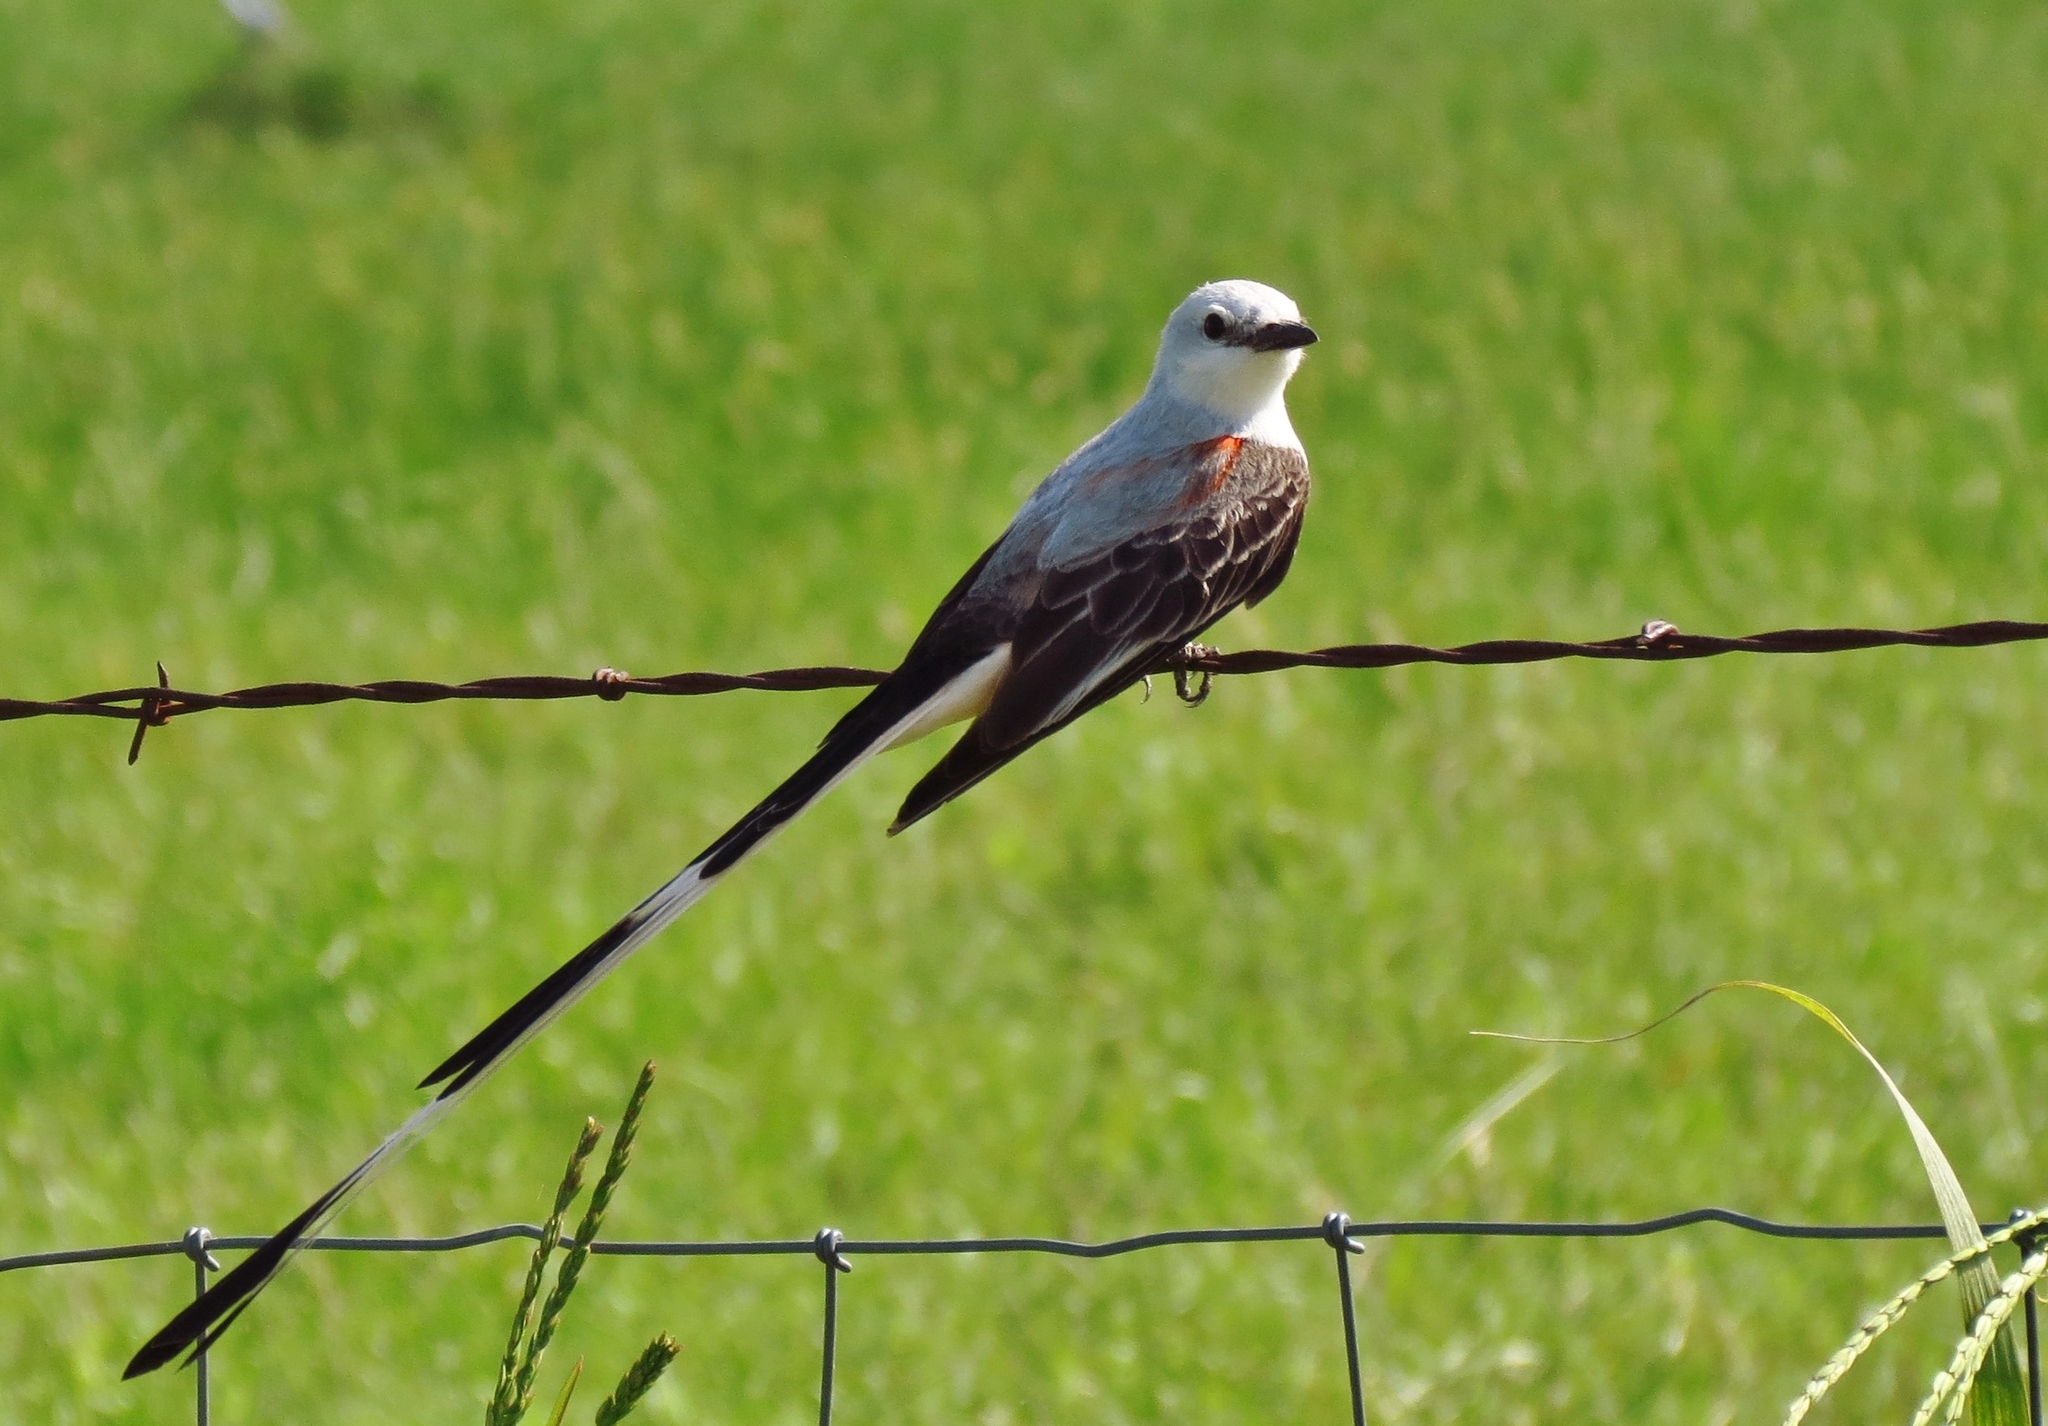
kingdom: Animalia
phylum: Chordata
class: Aves
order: Passeriformes
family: Tyrannidae
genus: Tyrannus
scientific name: Tyrannus forficatus
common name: Scissor-tailed flycatcher
